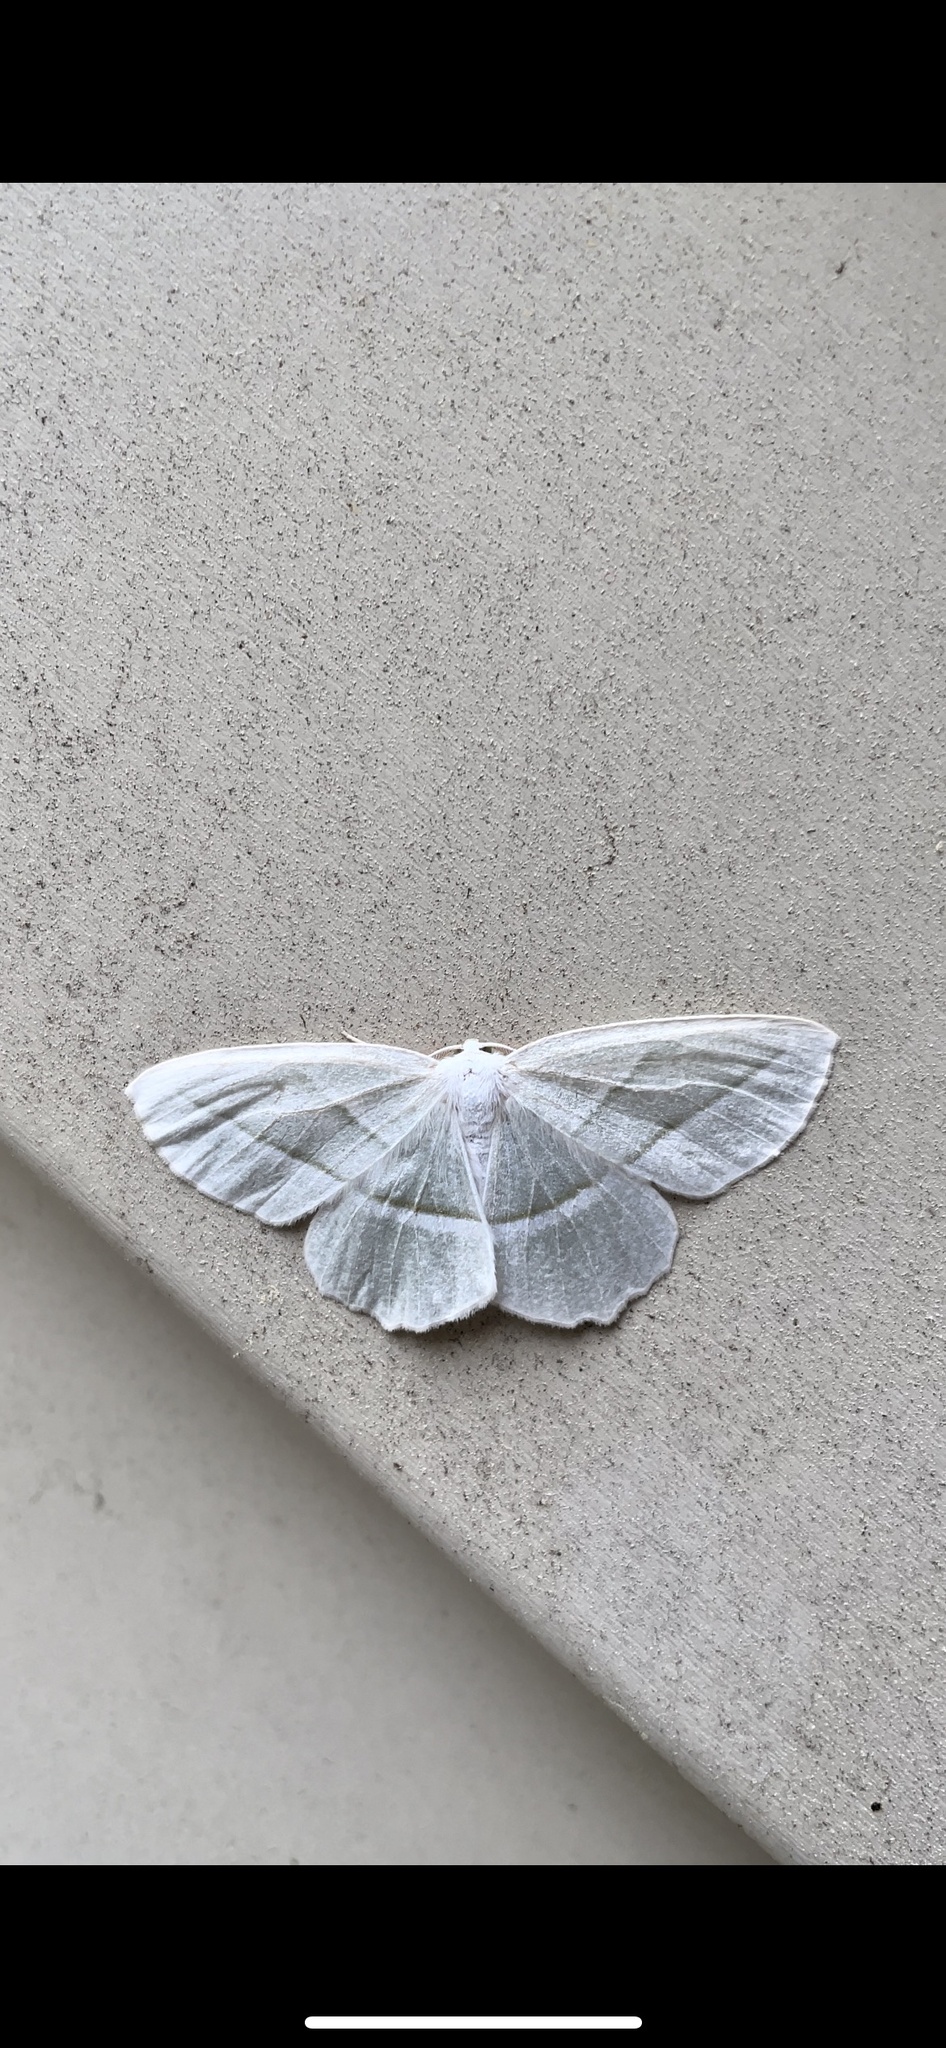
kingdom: Animalia
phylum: Arthropoda
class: Insecta
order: Lepidoptera
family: Geometridae
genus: Campaea
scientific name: Campaea perlata
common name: Fringed looper
